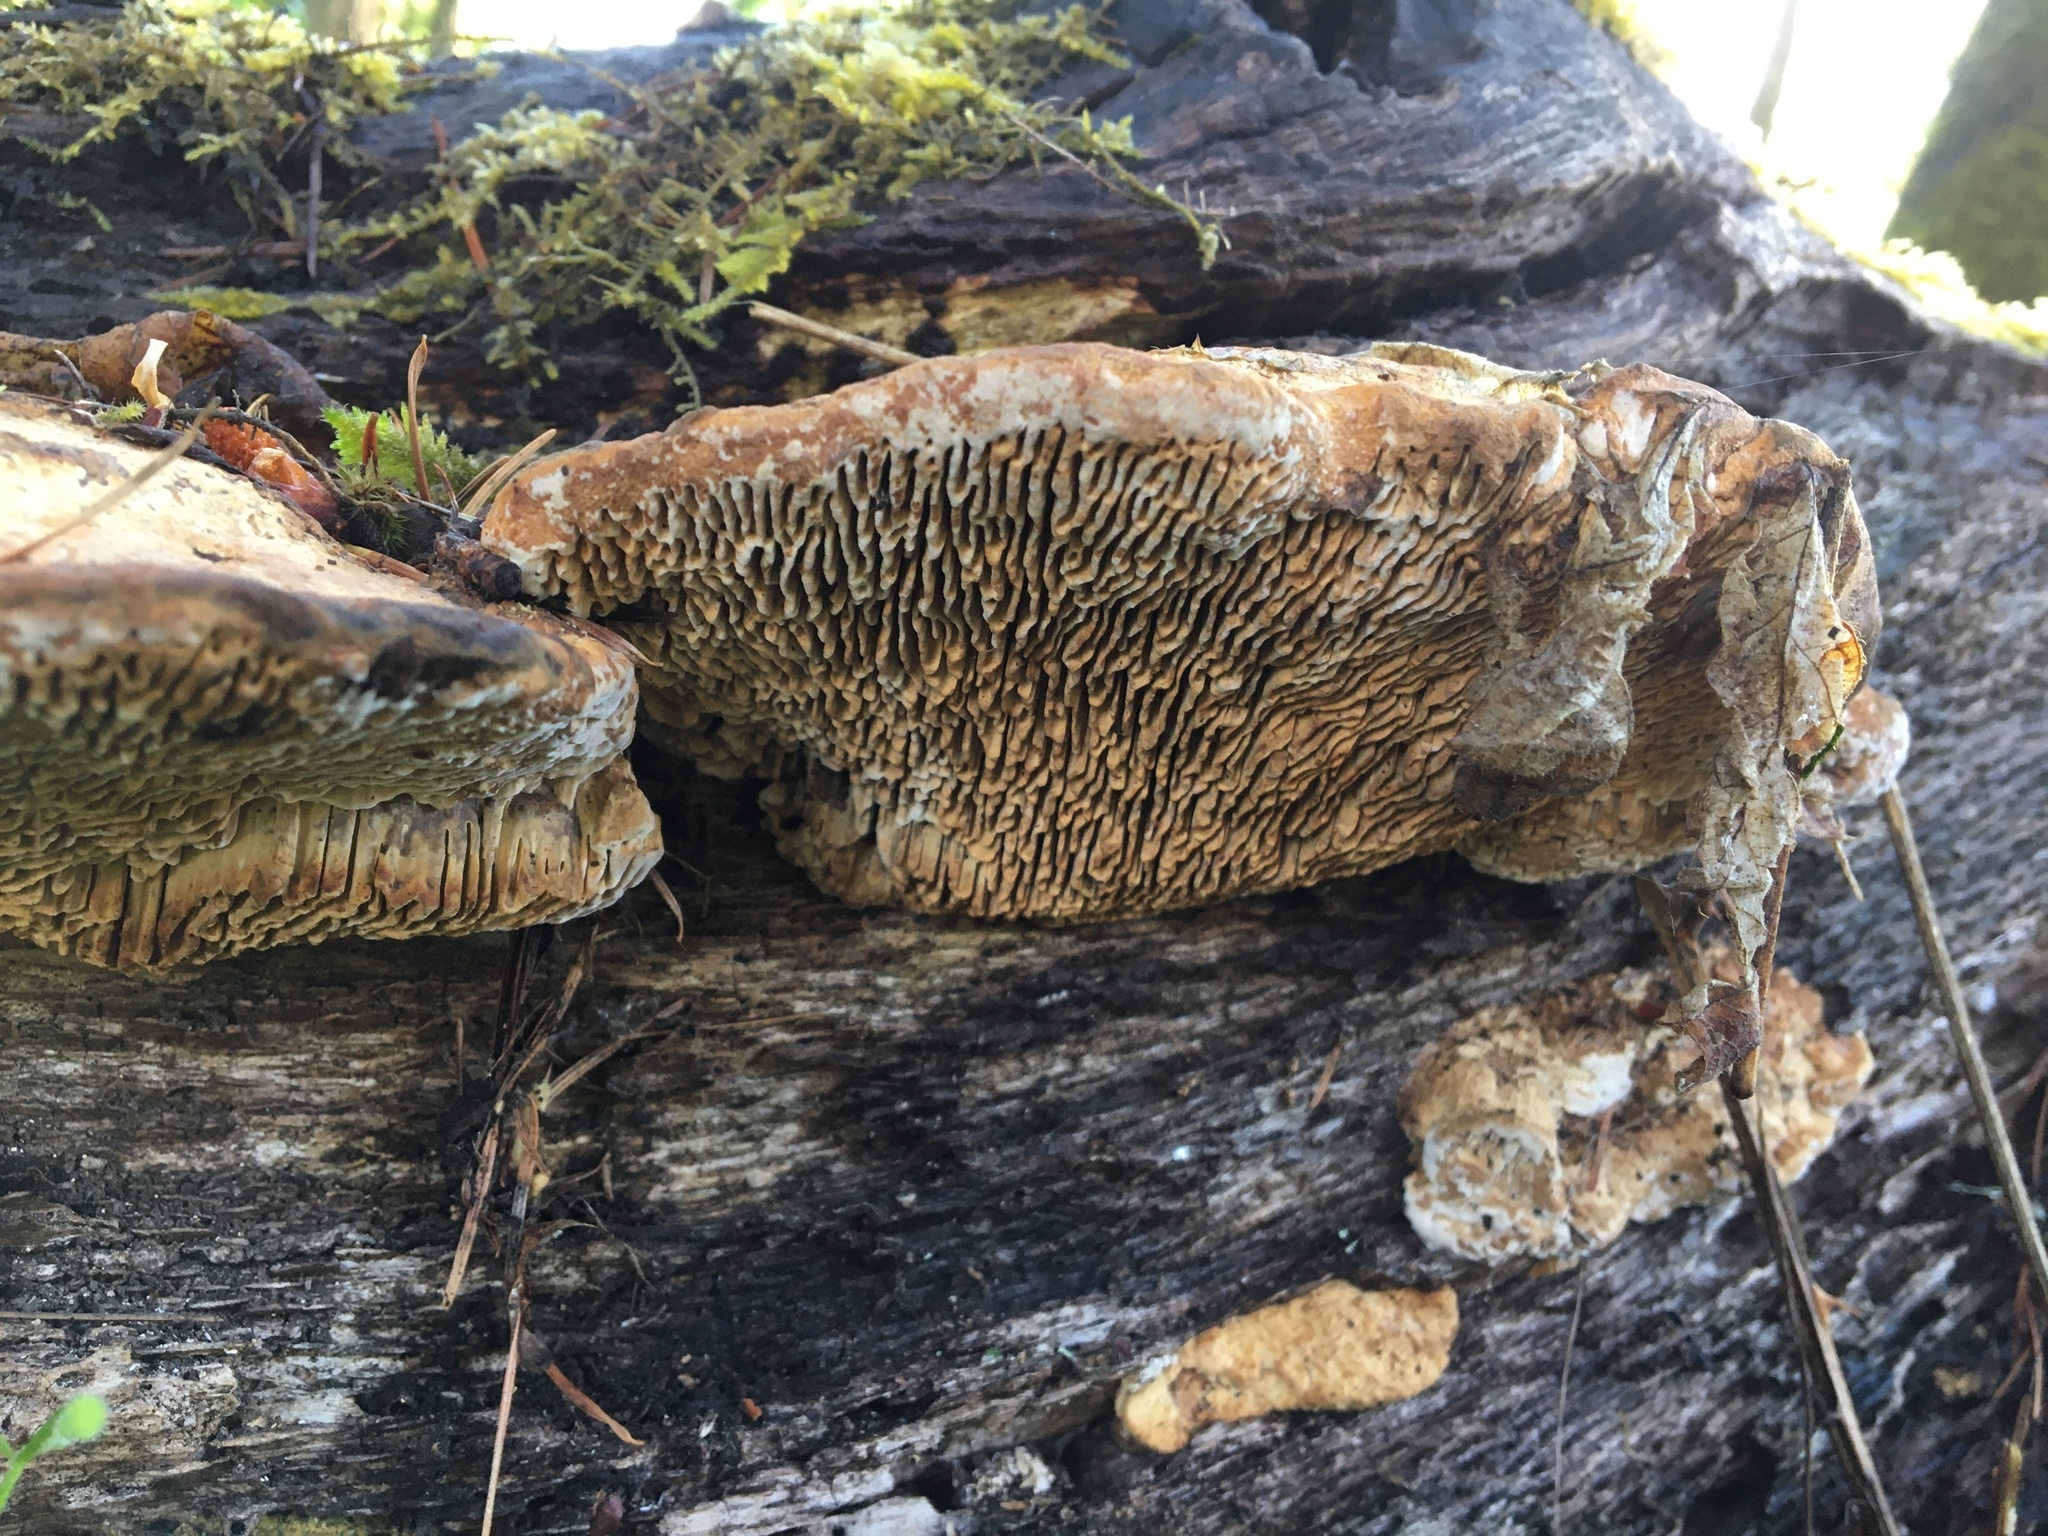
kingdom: Fungi
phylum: Basidiomycota
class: Agaricomycetes
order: Polyporales
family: Fomitopsidaceae
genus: Fomitopsis
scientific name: Fomitopsis
